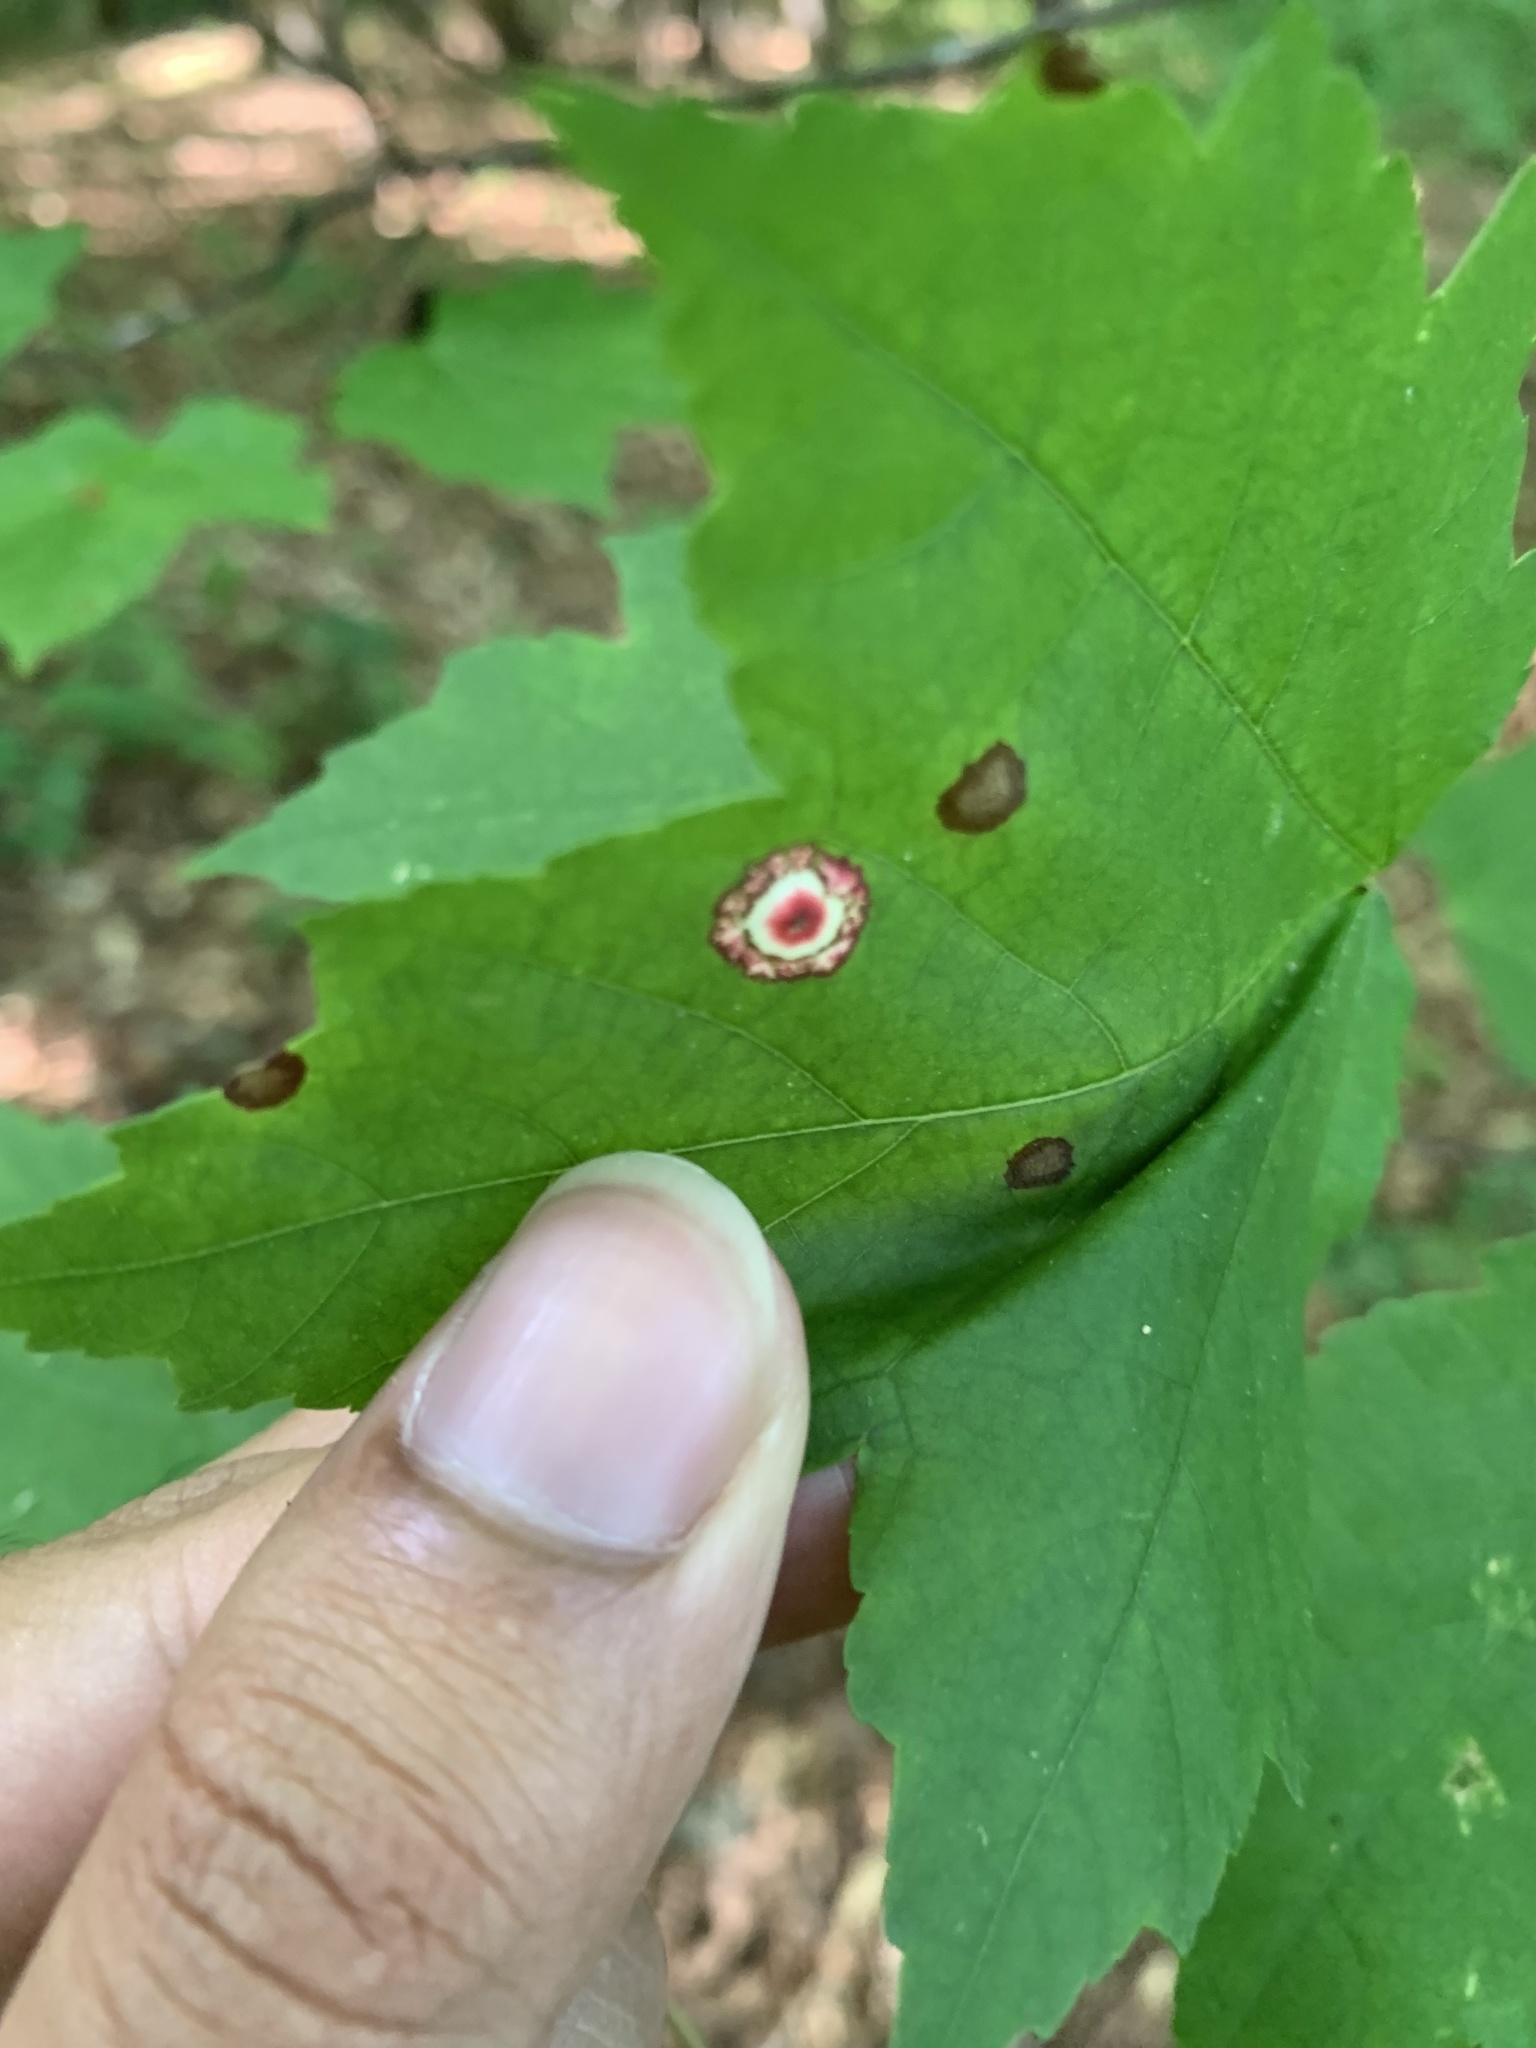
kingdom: Animalia
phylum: Arthropoda
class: Insecta
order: Diptera
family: Cecidomyiidae
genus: Acericecis
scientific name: Acericecis ocellaris
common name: Ocellate gall midge
